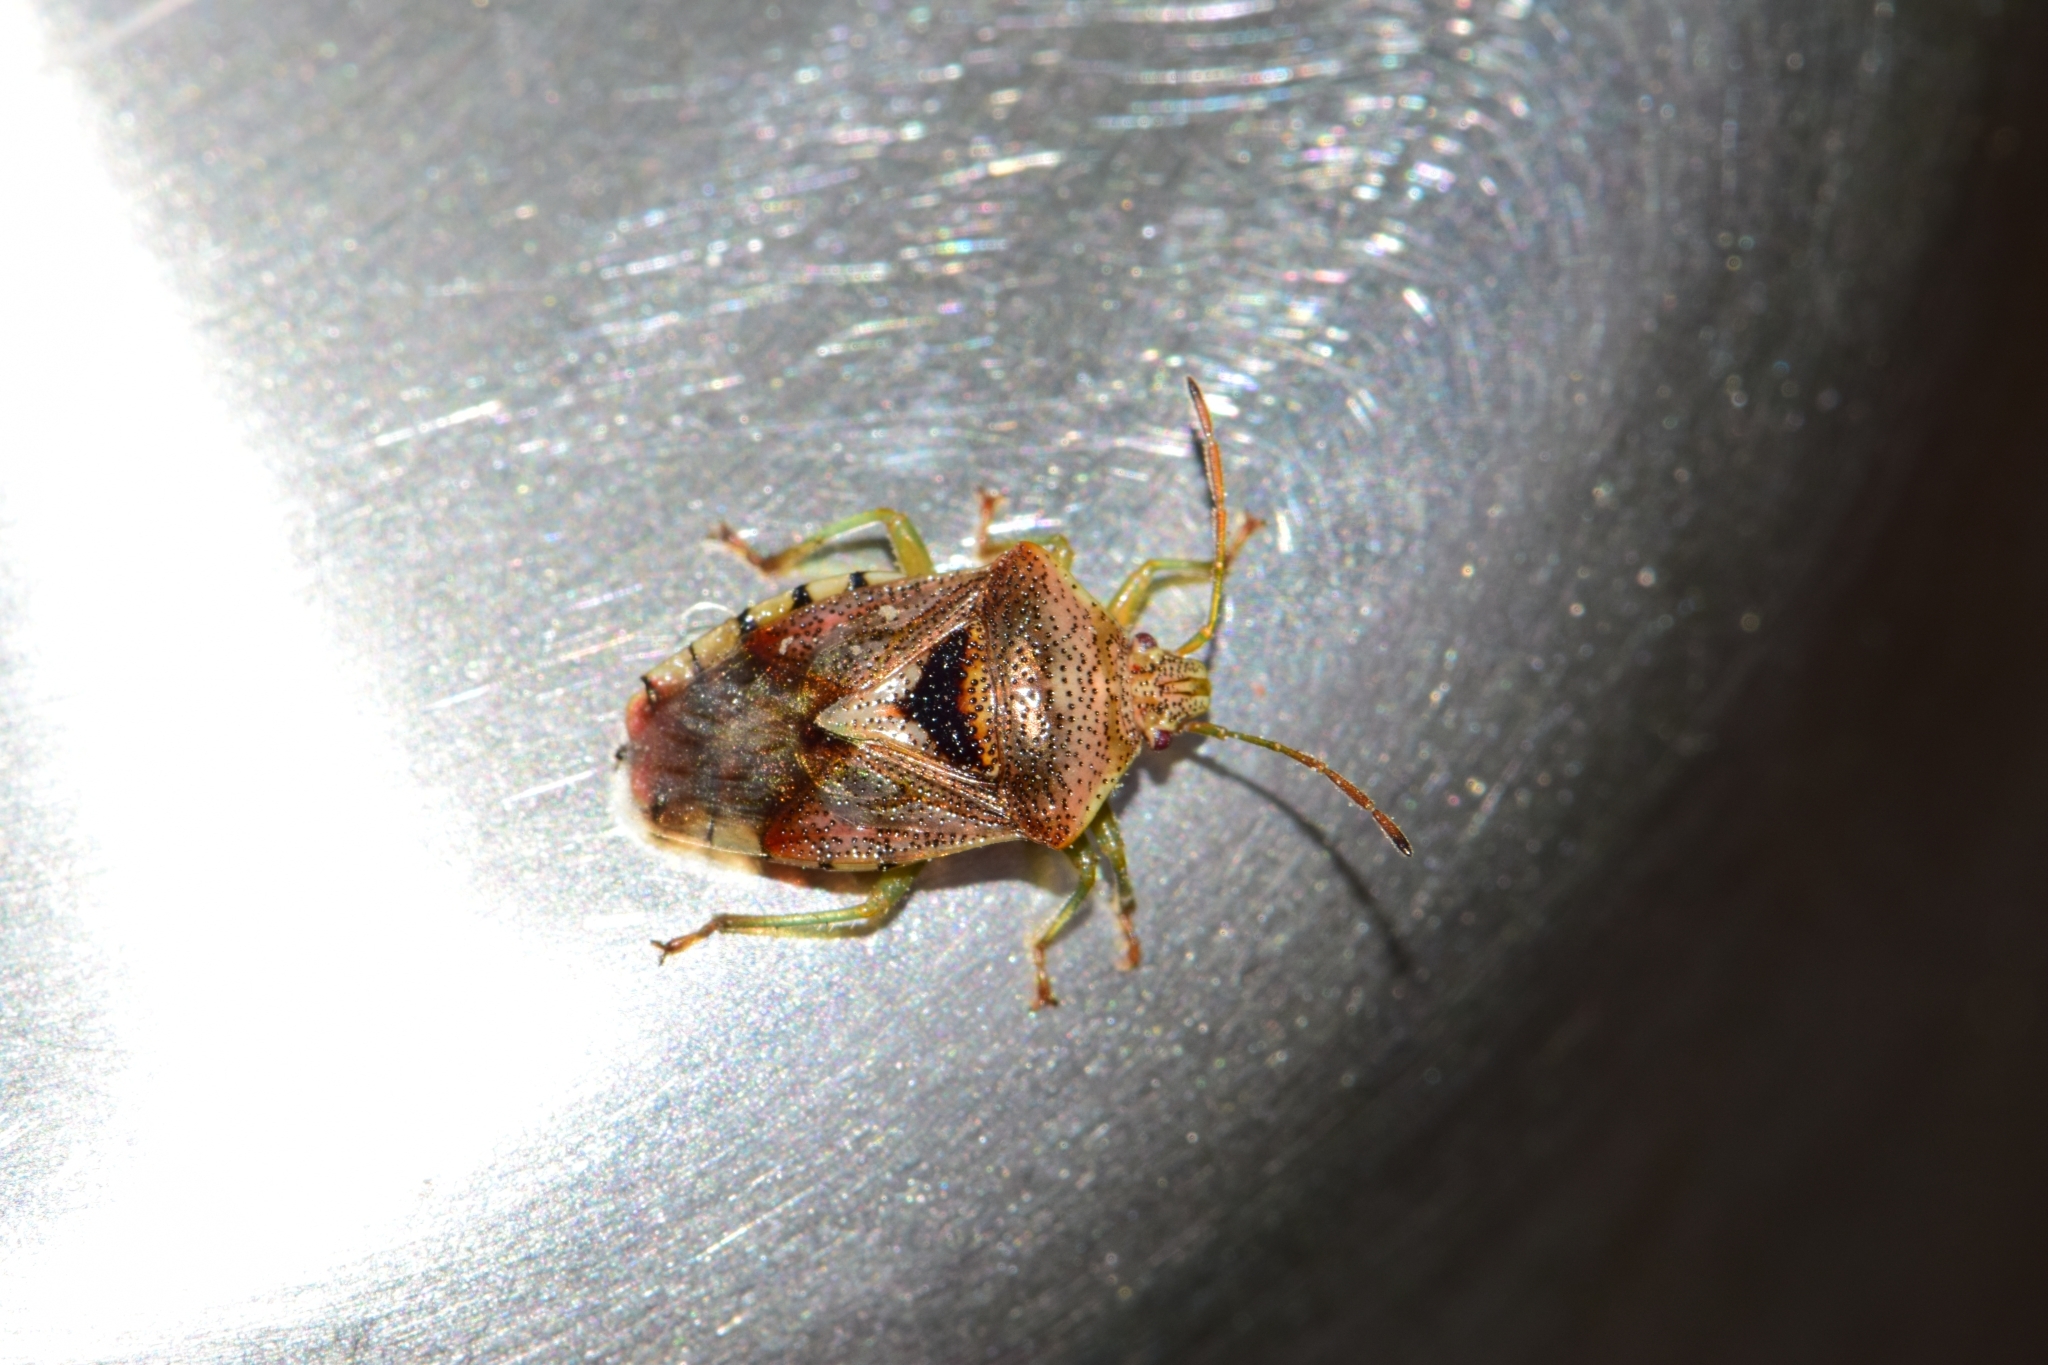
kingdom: Animalia
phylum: Arthropoda
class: Insecta
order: Hemiptera
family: Acanthosomatidae
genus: Elasmucha
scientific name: Elasmucha grisea
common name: Parent bug
